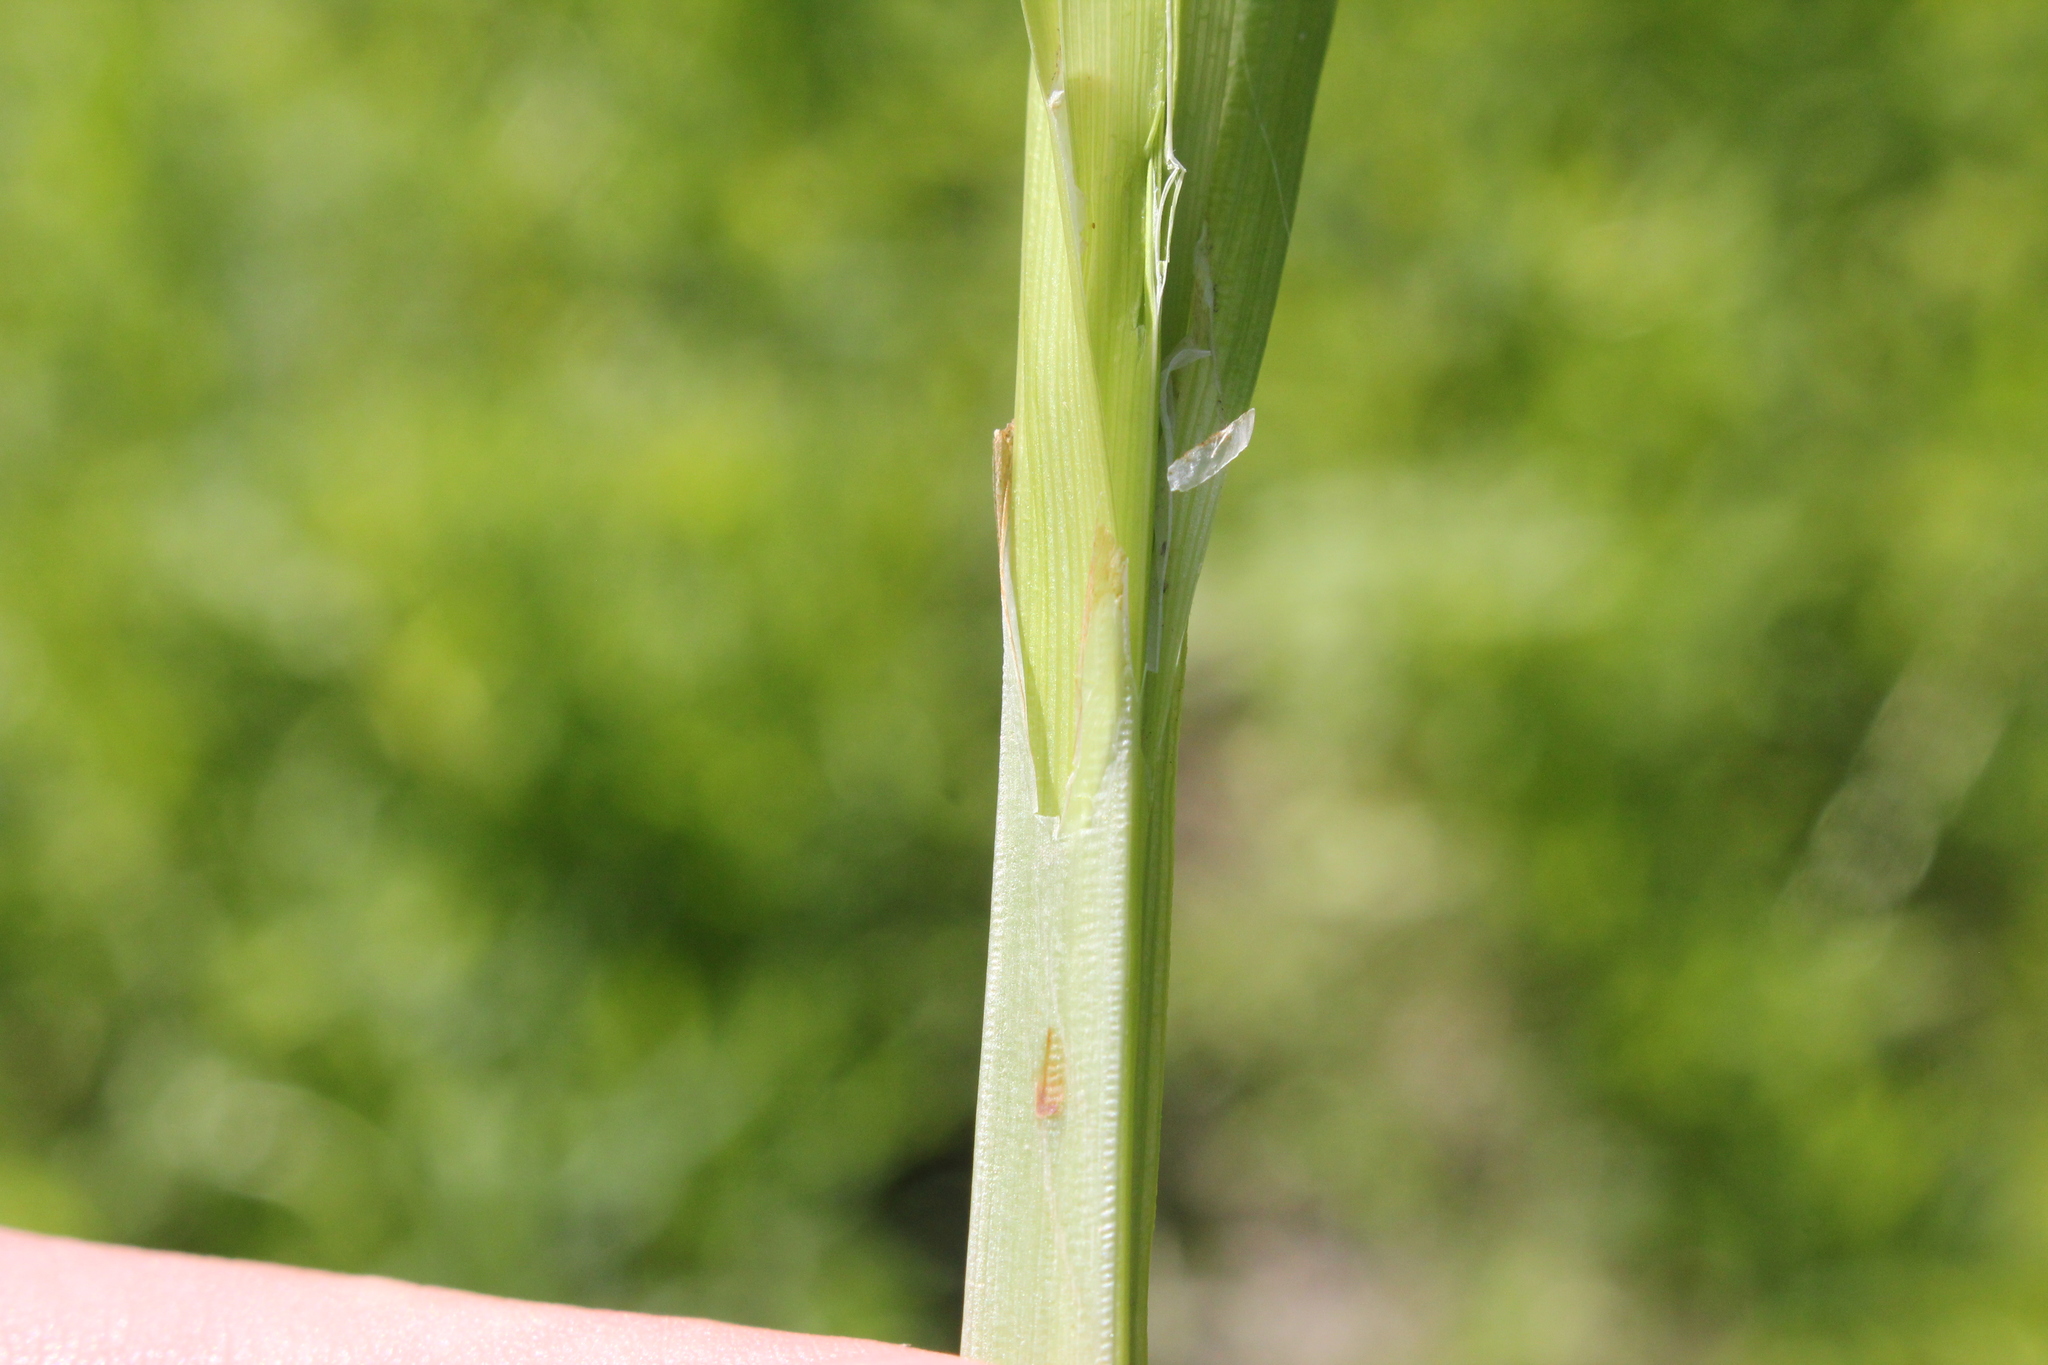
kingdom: Plantae
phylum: Tracheophyta
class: Liliopsida
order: Poales
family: Cyperaceae
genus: Carex
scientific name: Carex alopecoidea
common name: Brown-headed fox sedge
